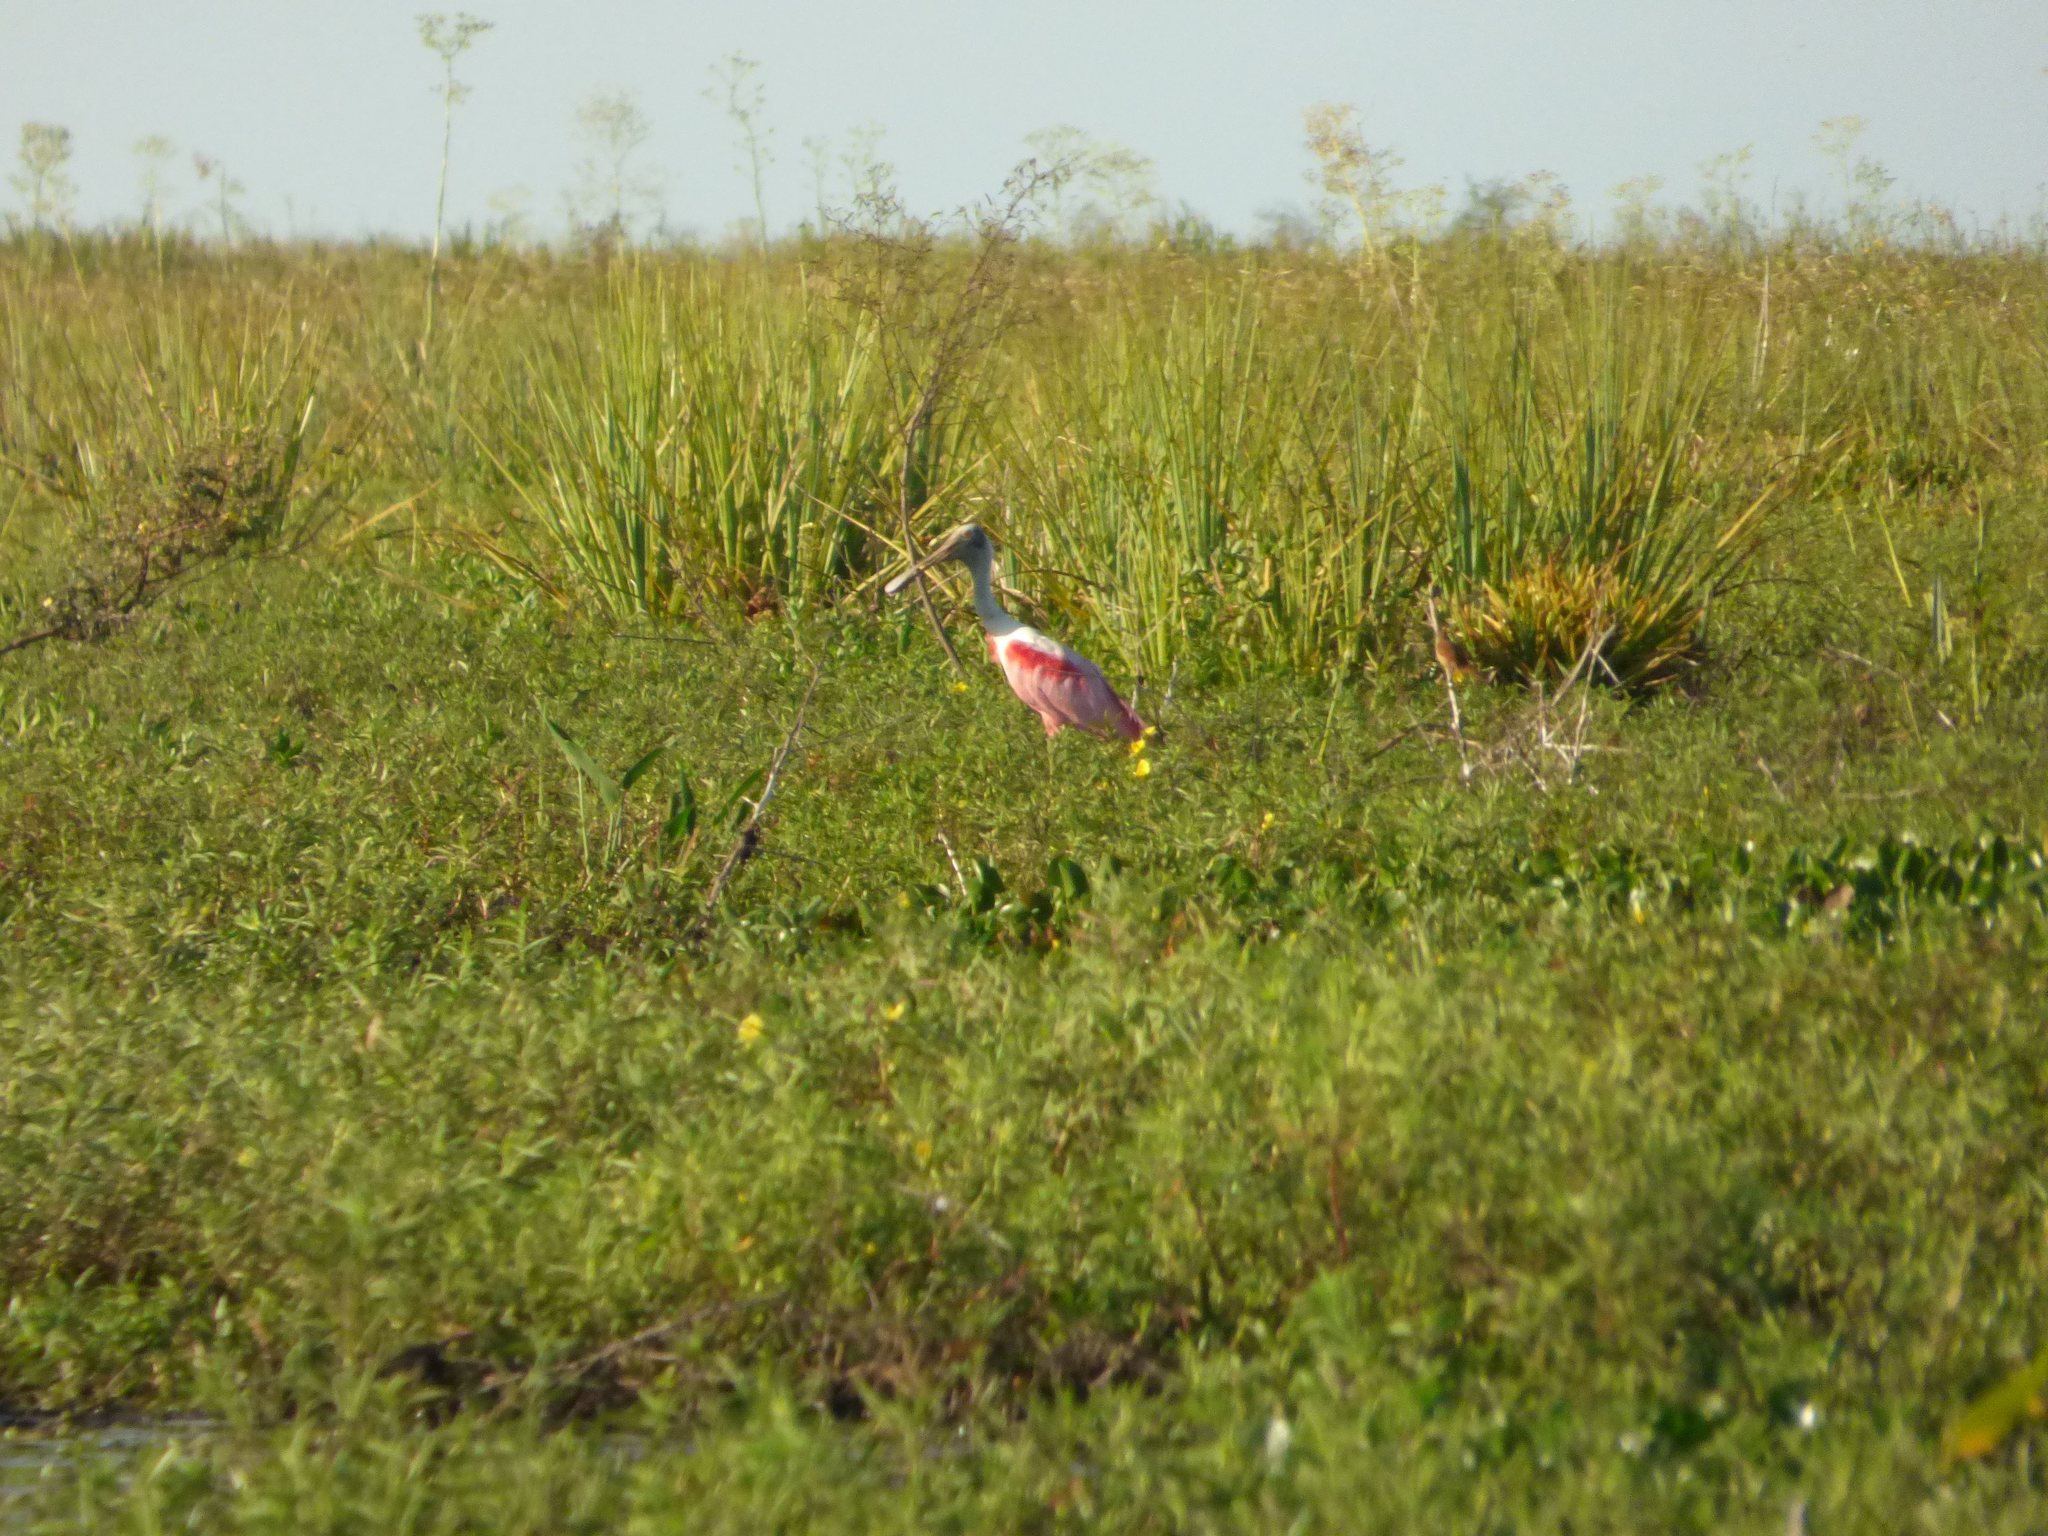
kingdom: Animalia
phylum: Chordata
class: Aves
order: Pelecaniformes
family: Threskiornithidae
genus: Platalea
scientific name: Platalea ajaja
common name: Roseate spoonbill
